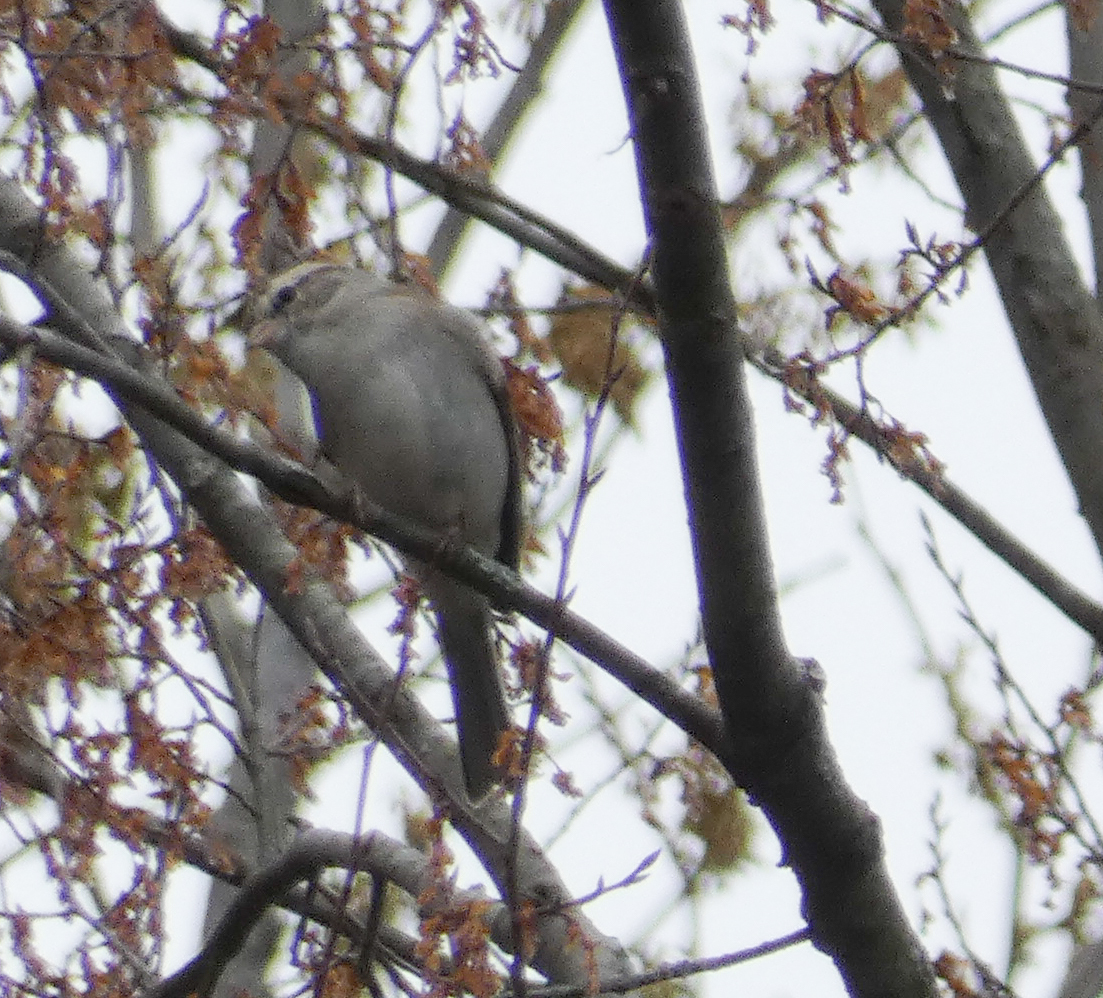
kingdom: Animalia
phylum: Chordata
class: Aves
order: Passeriformes
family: Passerellidae
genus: Spizella
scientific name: Spizella passerina
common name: Chipping sparrow
